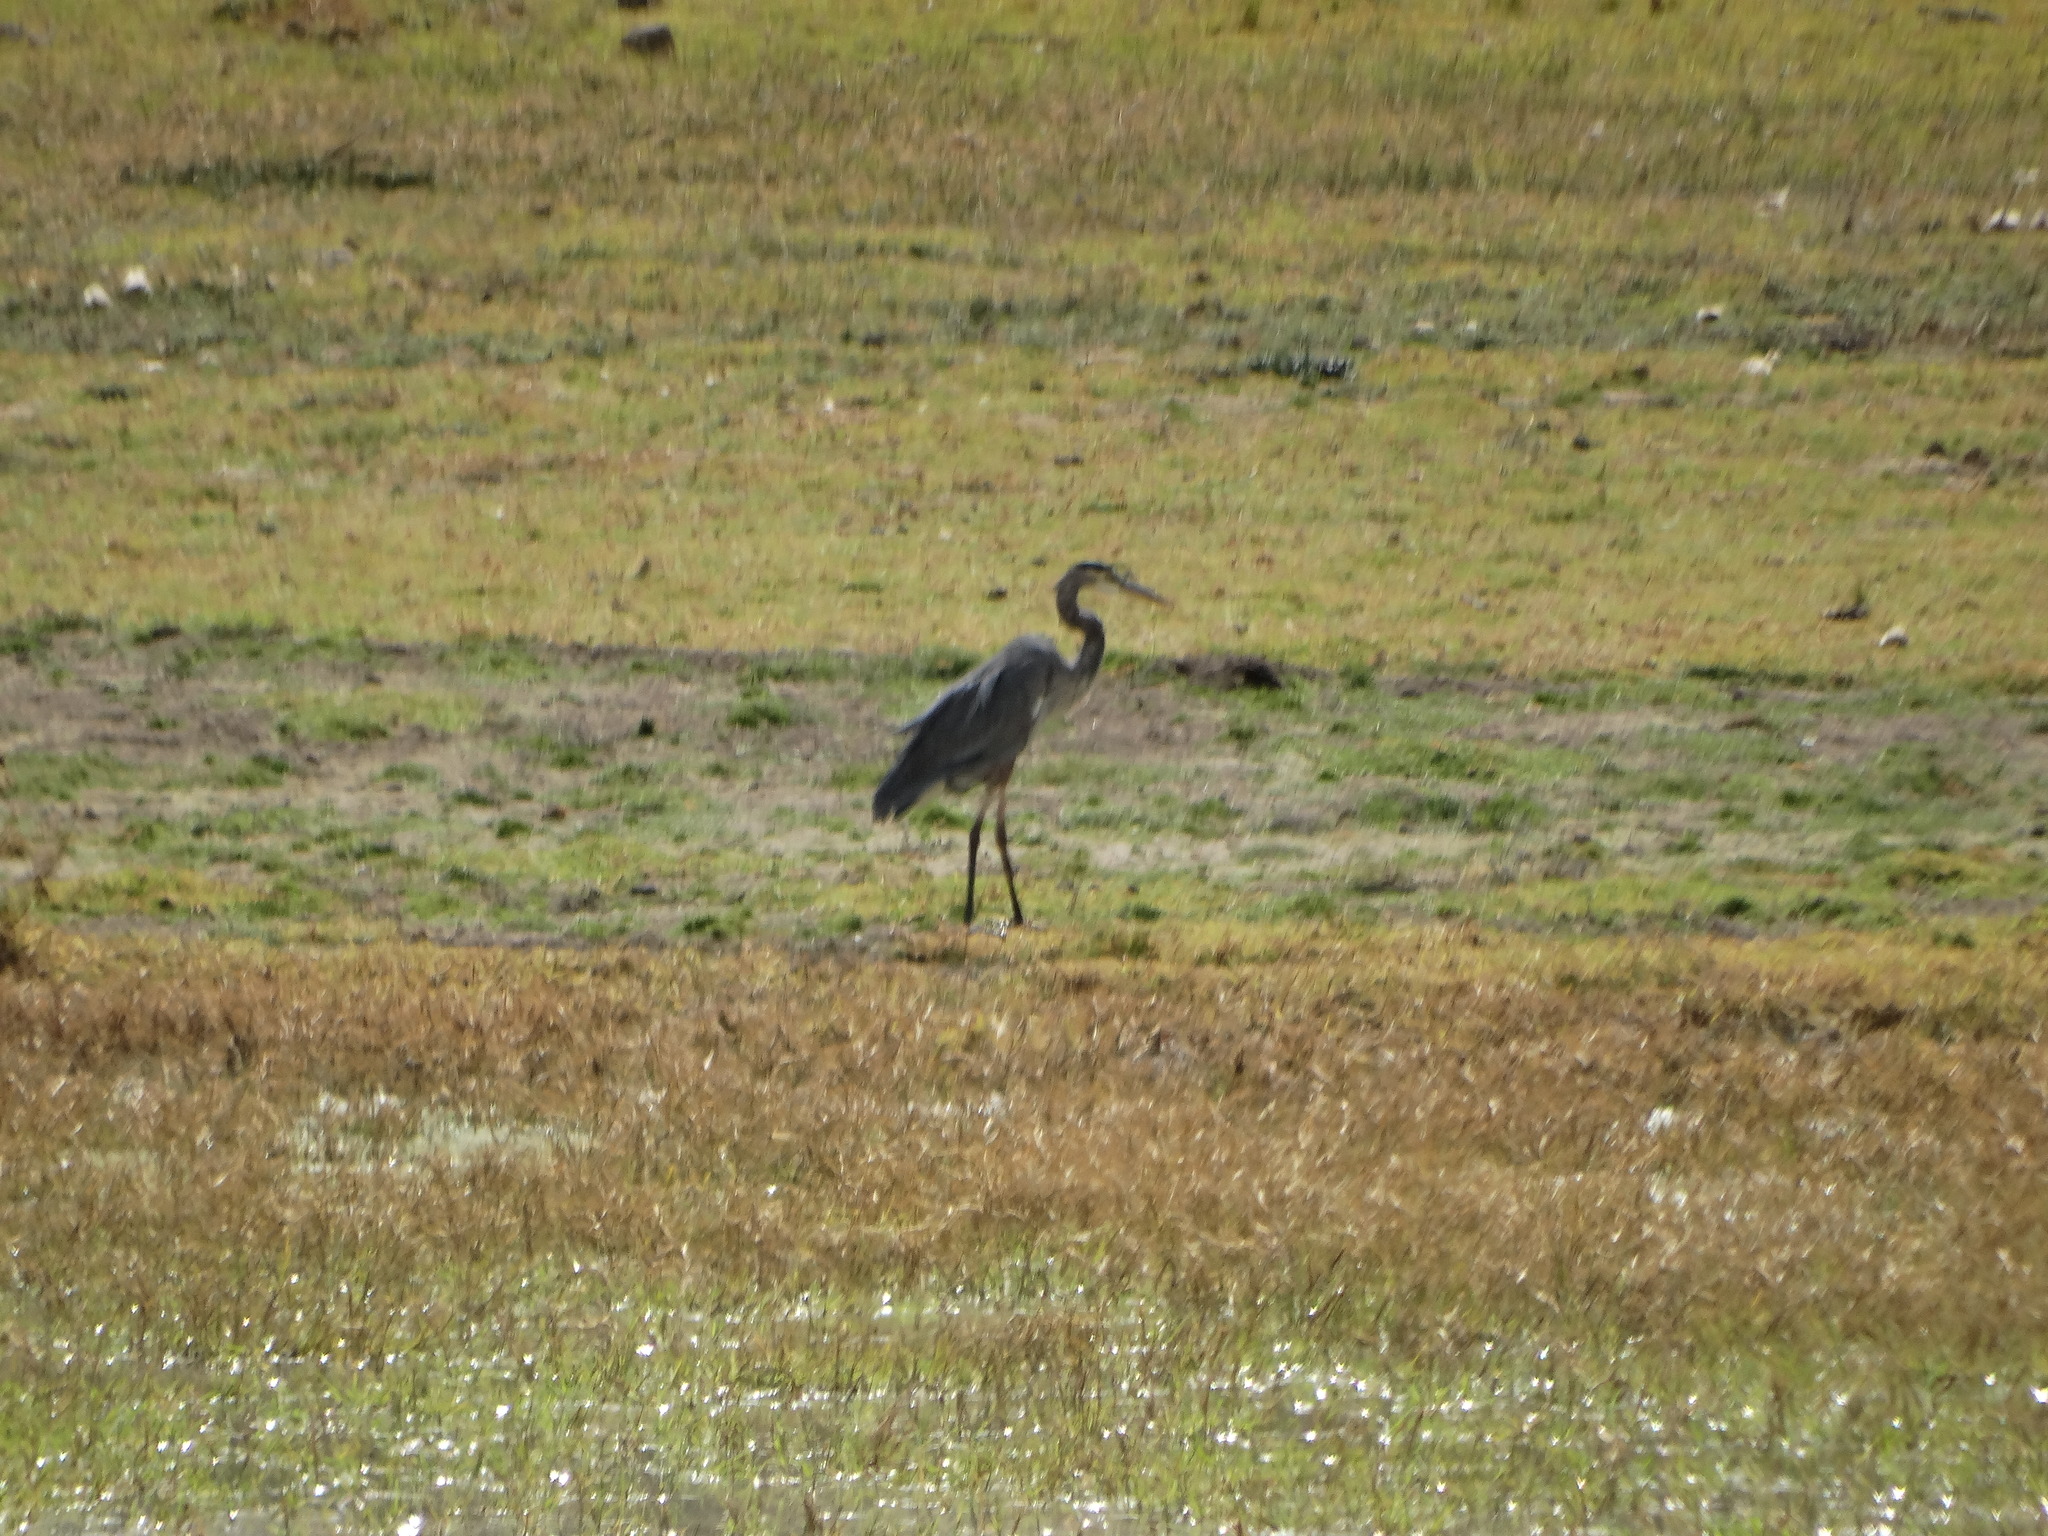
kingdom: Animalia
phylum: Chordata
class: Aves
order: Pelecaniformes
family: Ardeidae
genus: Ardea
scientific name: Ardea herodias
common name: Great blue heron
